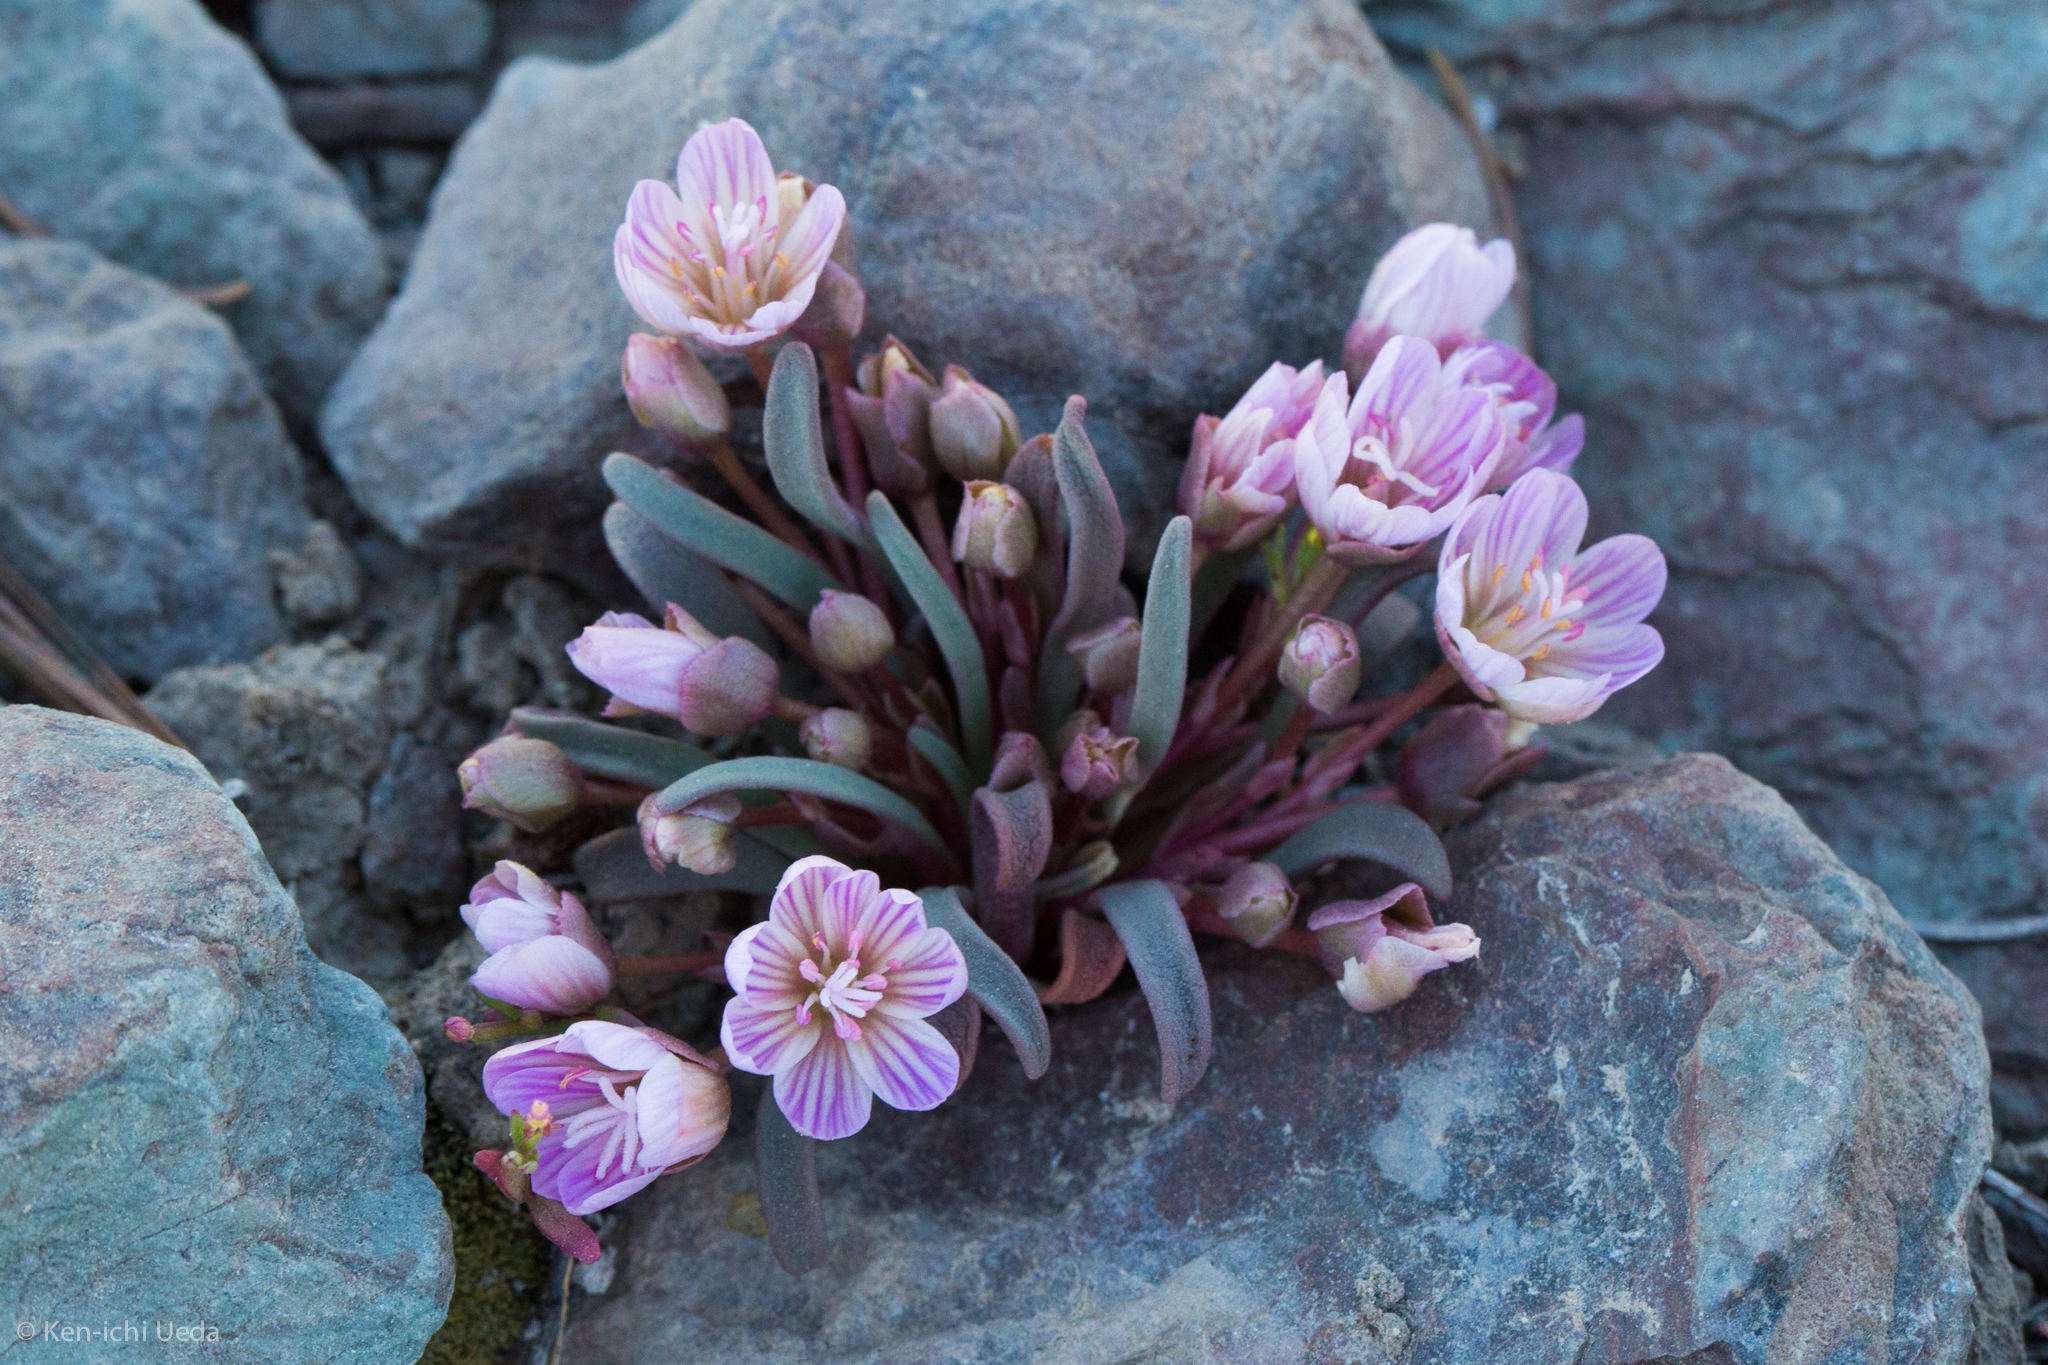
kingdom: Plantae
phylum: Tracheophyta
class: Magnoliopsida
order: Caryophyllales
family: Montiaceae
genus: Lewisia
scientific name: Lewisia pygmaea
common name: Alpine bitterroot
